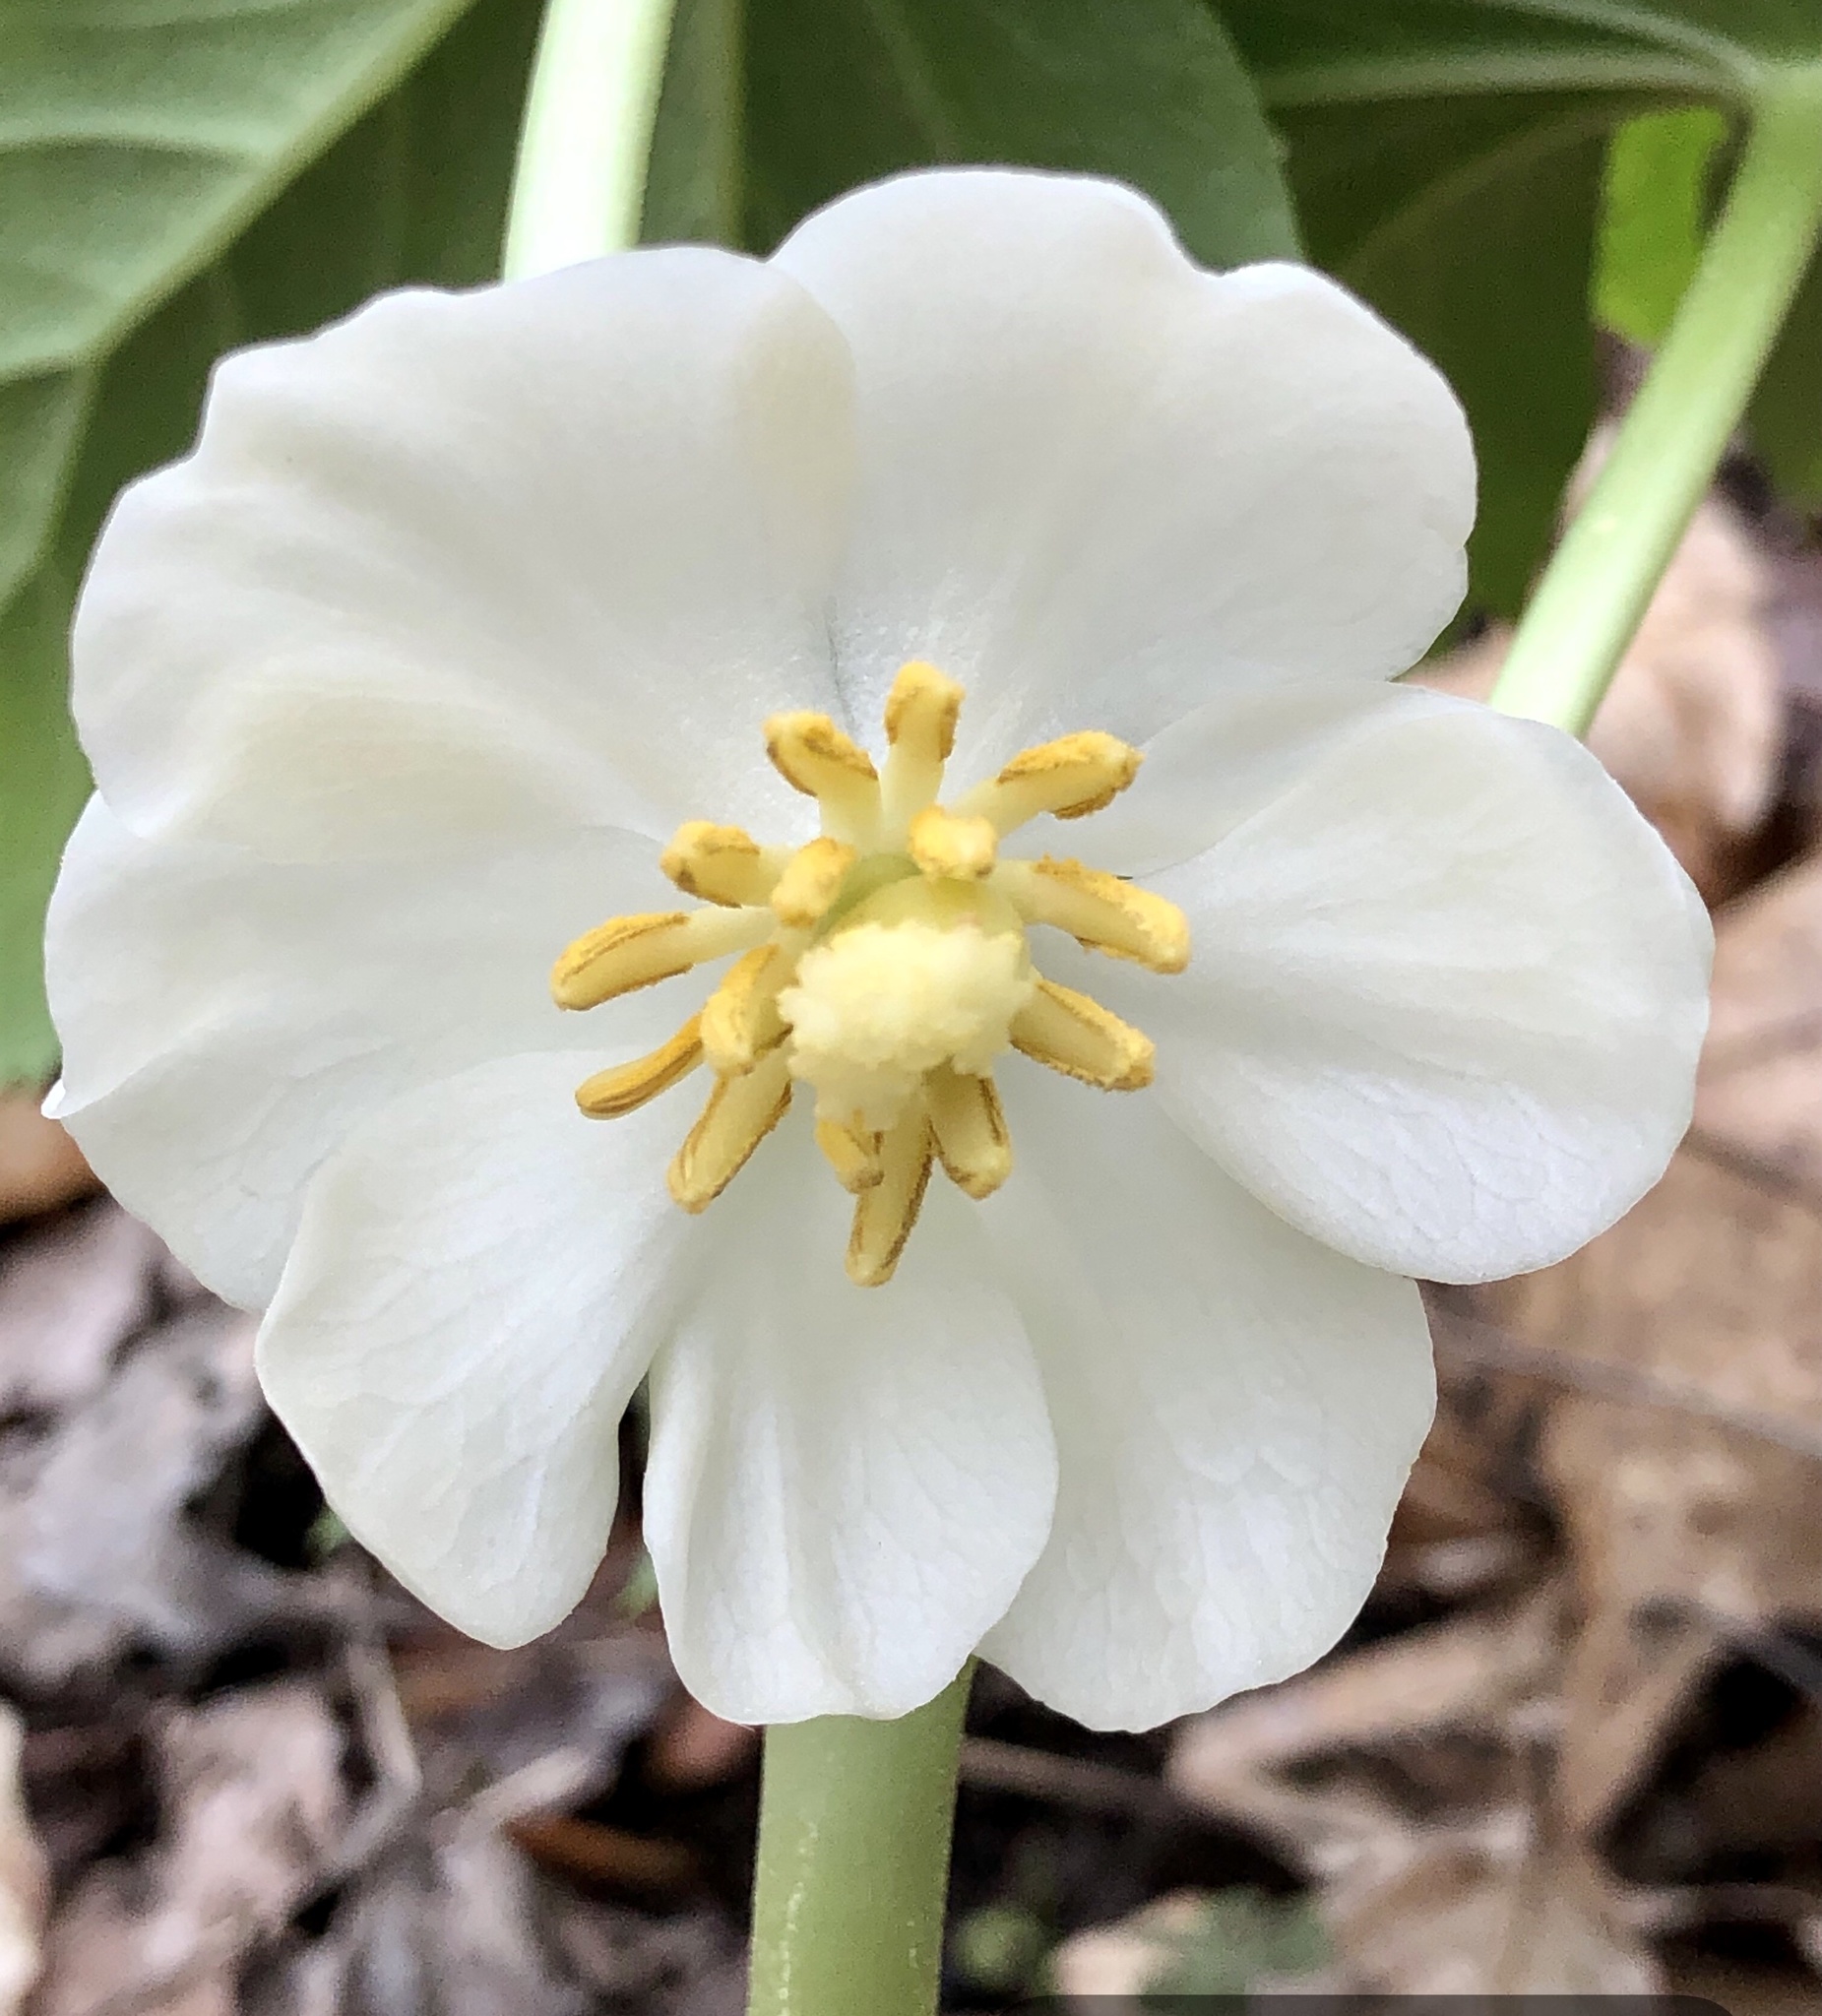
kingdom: Plantae
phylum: Tracheophyta
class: Magnoliopsida
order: Ranunculales
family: Berberidaceae
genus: Podophyllum
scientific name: Podophyllum peltatum
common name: Wild mandrake
